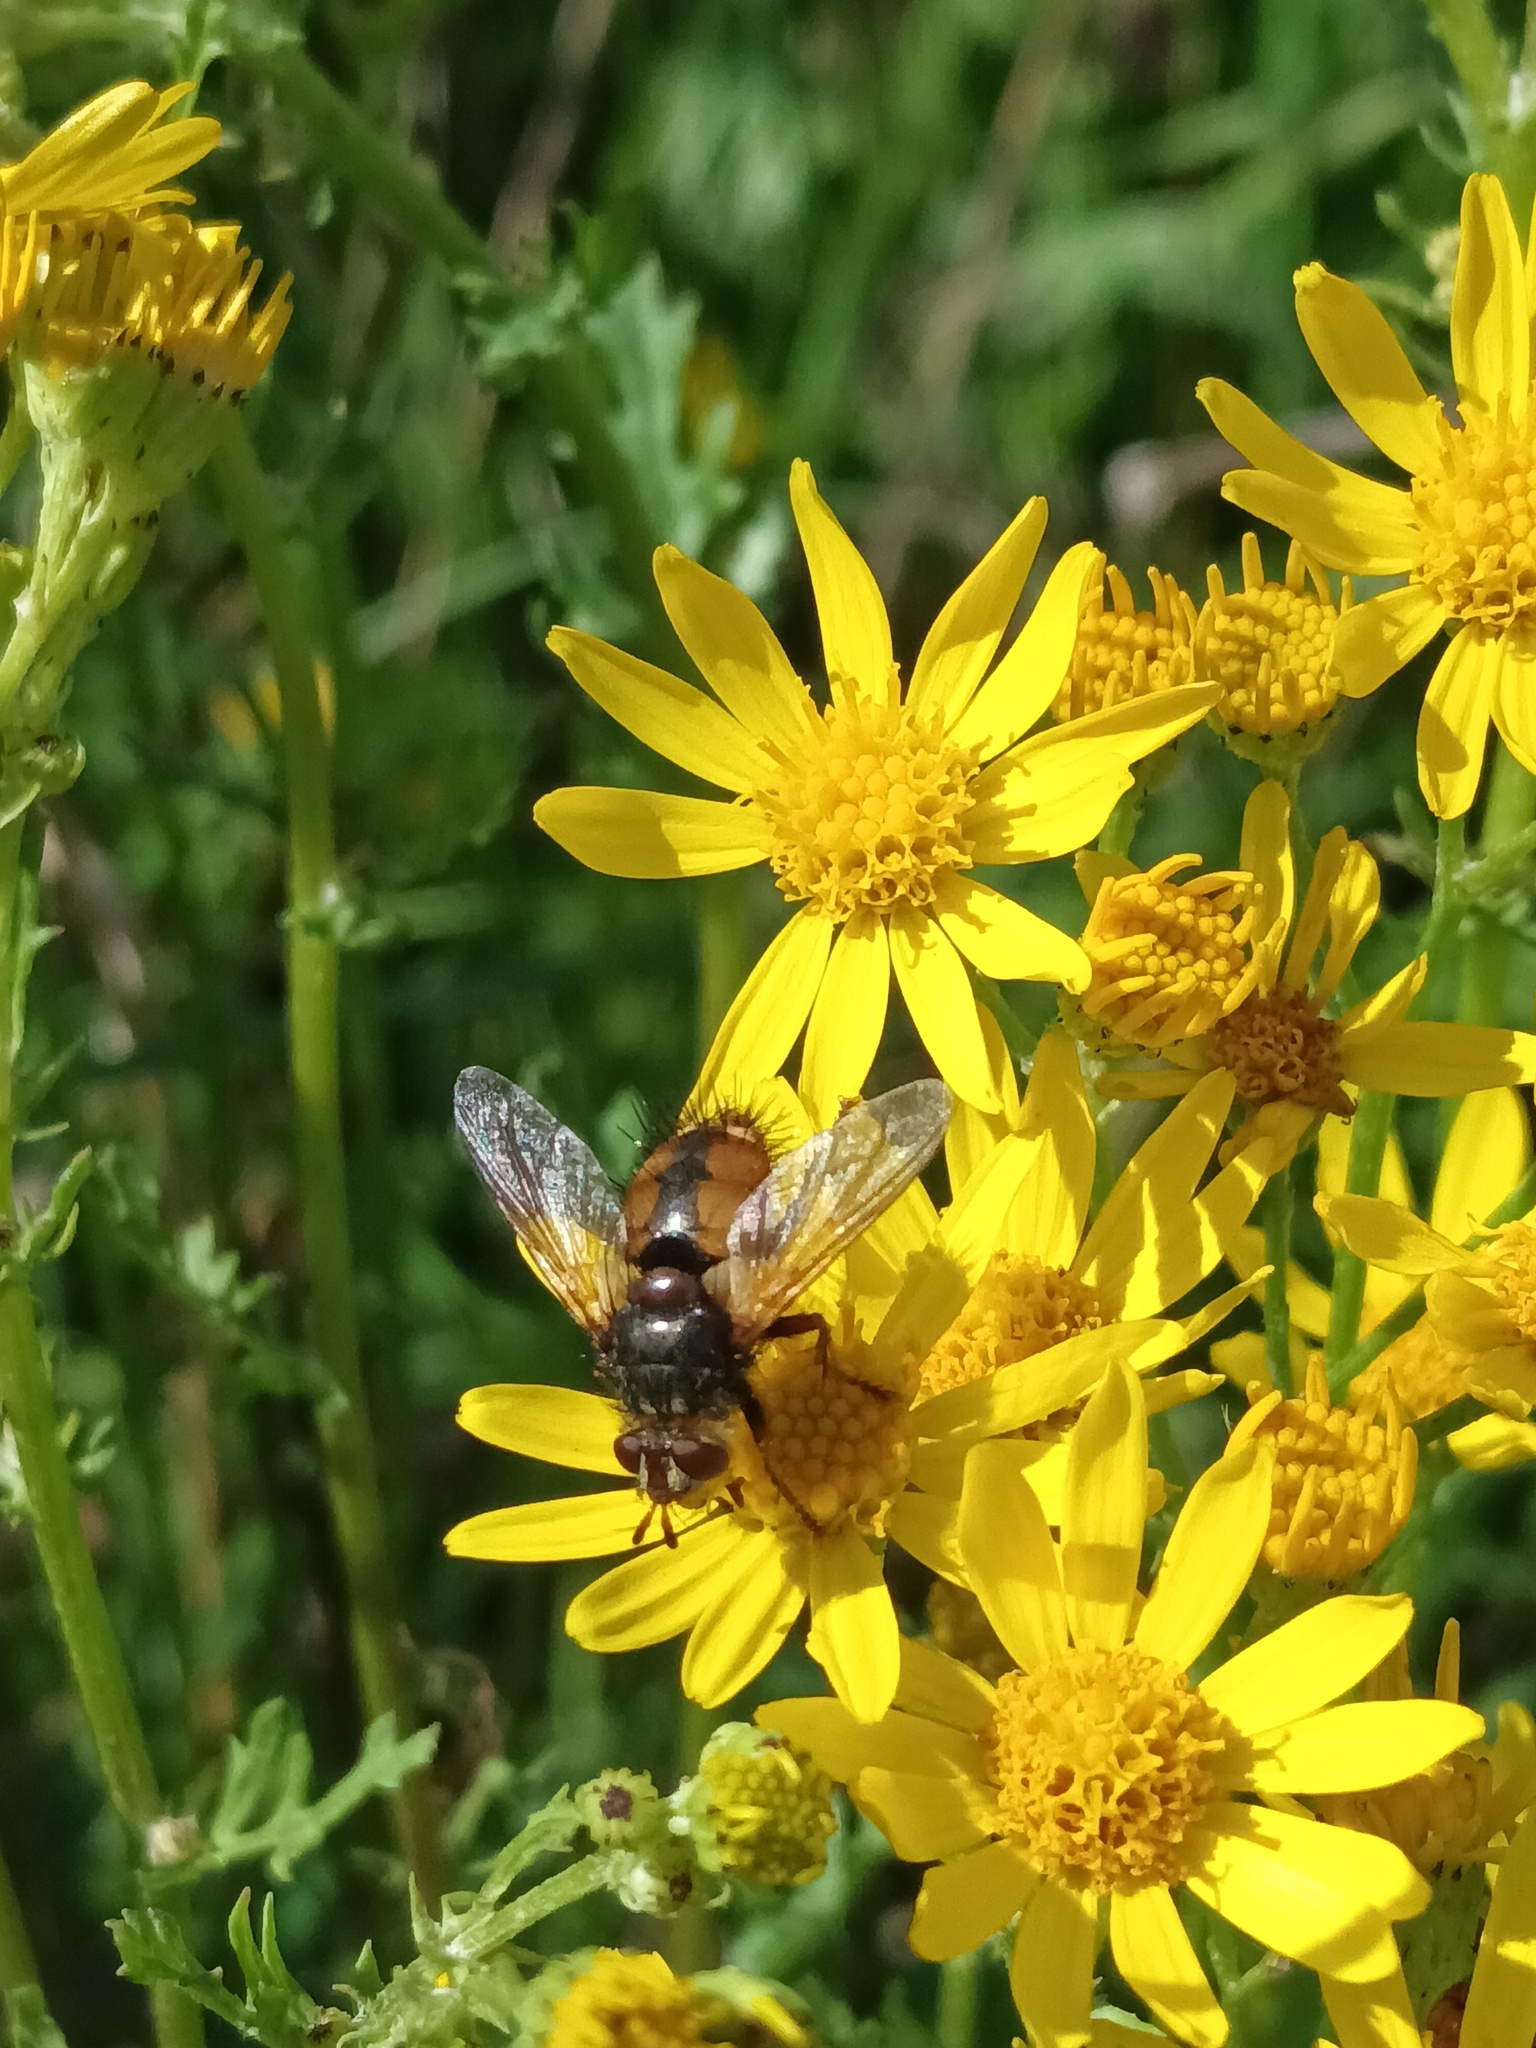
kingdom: Animalia
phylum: Arthropoda
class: Insecta
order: Diptera
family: Tachinidae
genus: Tachina
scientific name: Tachina fera
